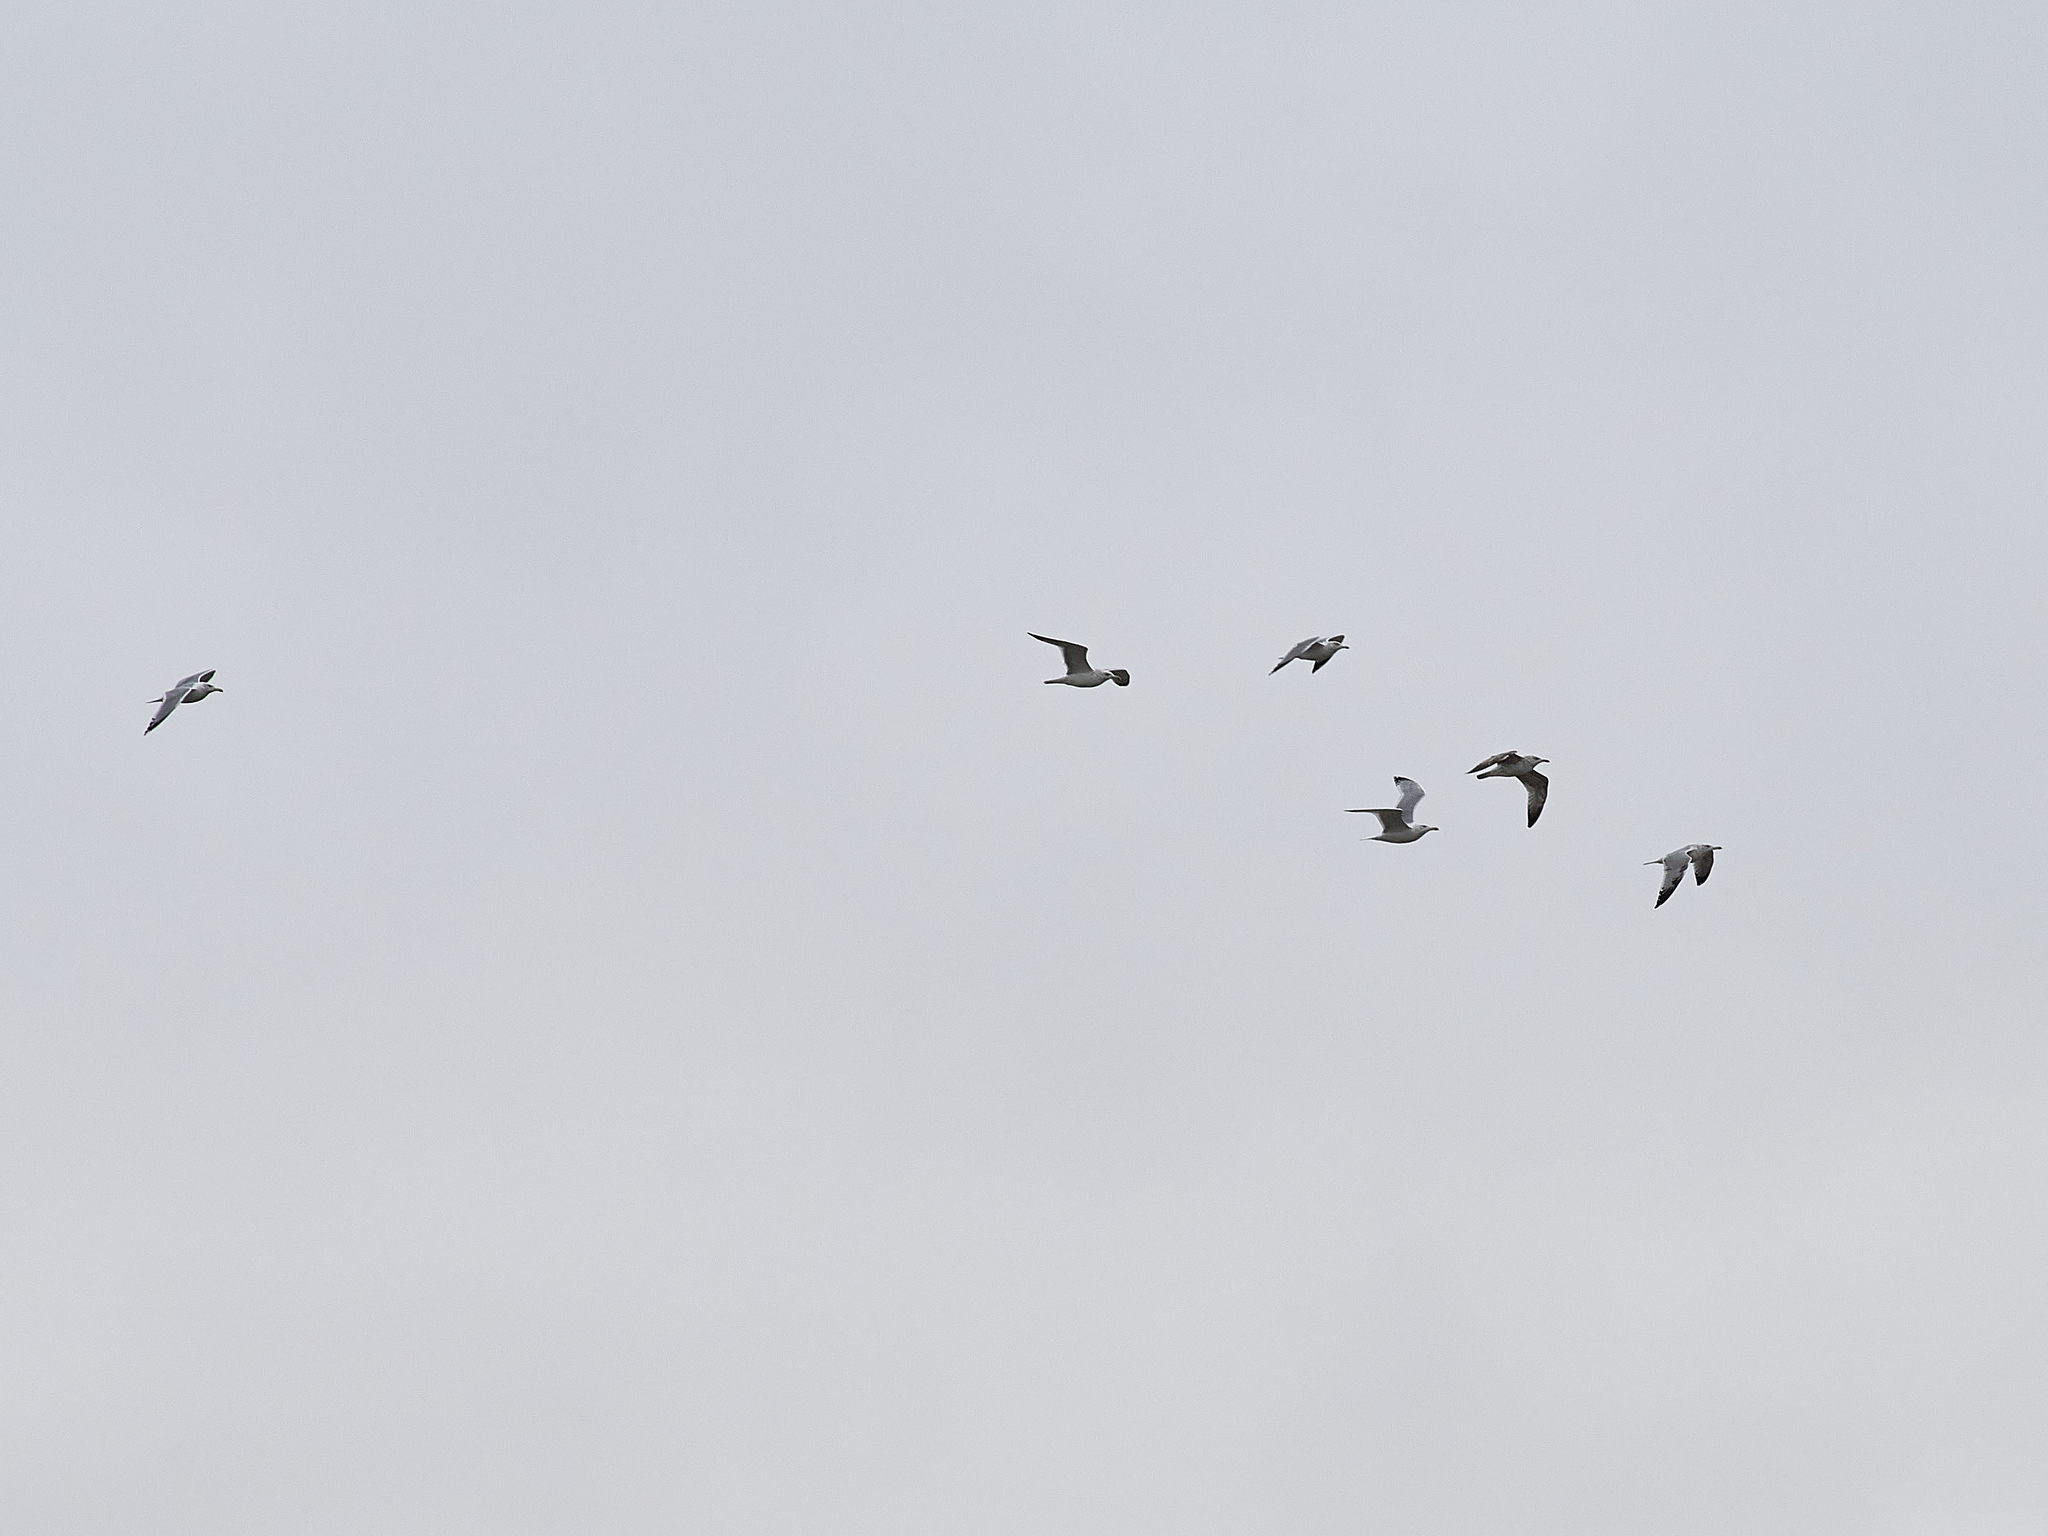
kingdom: Animalia
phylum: Chordata
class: Aves
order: Charadriiformes
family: Laridae
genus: Larus
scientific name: Larus cachinnans
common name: Caspian gull
